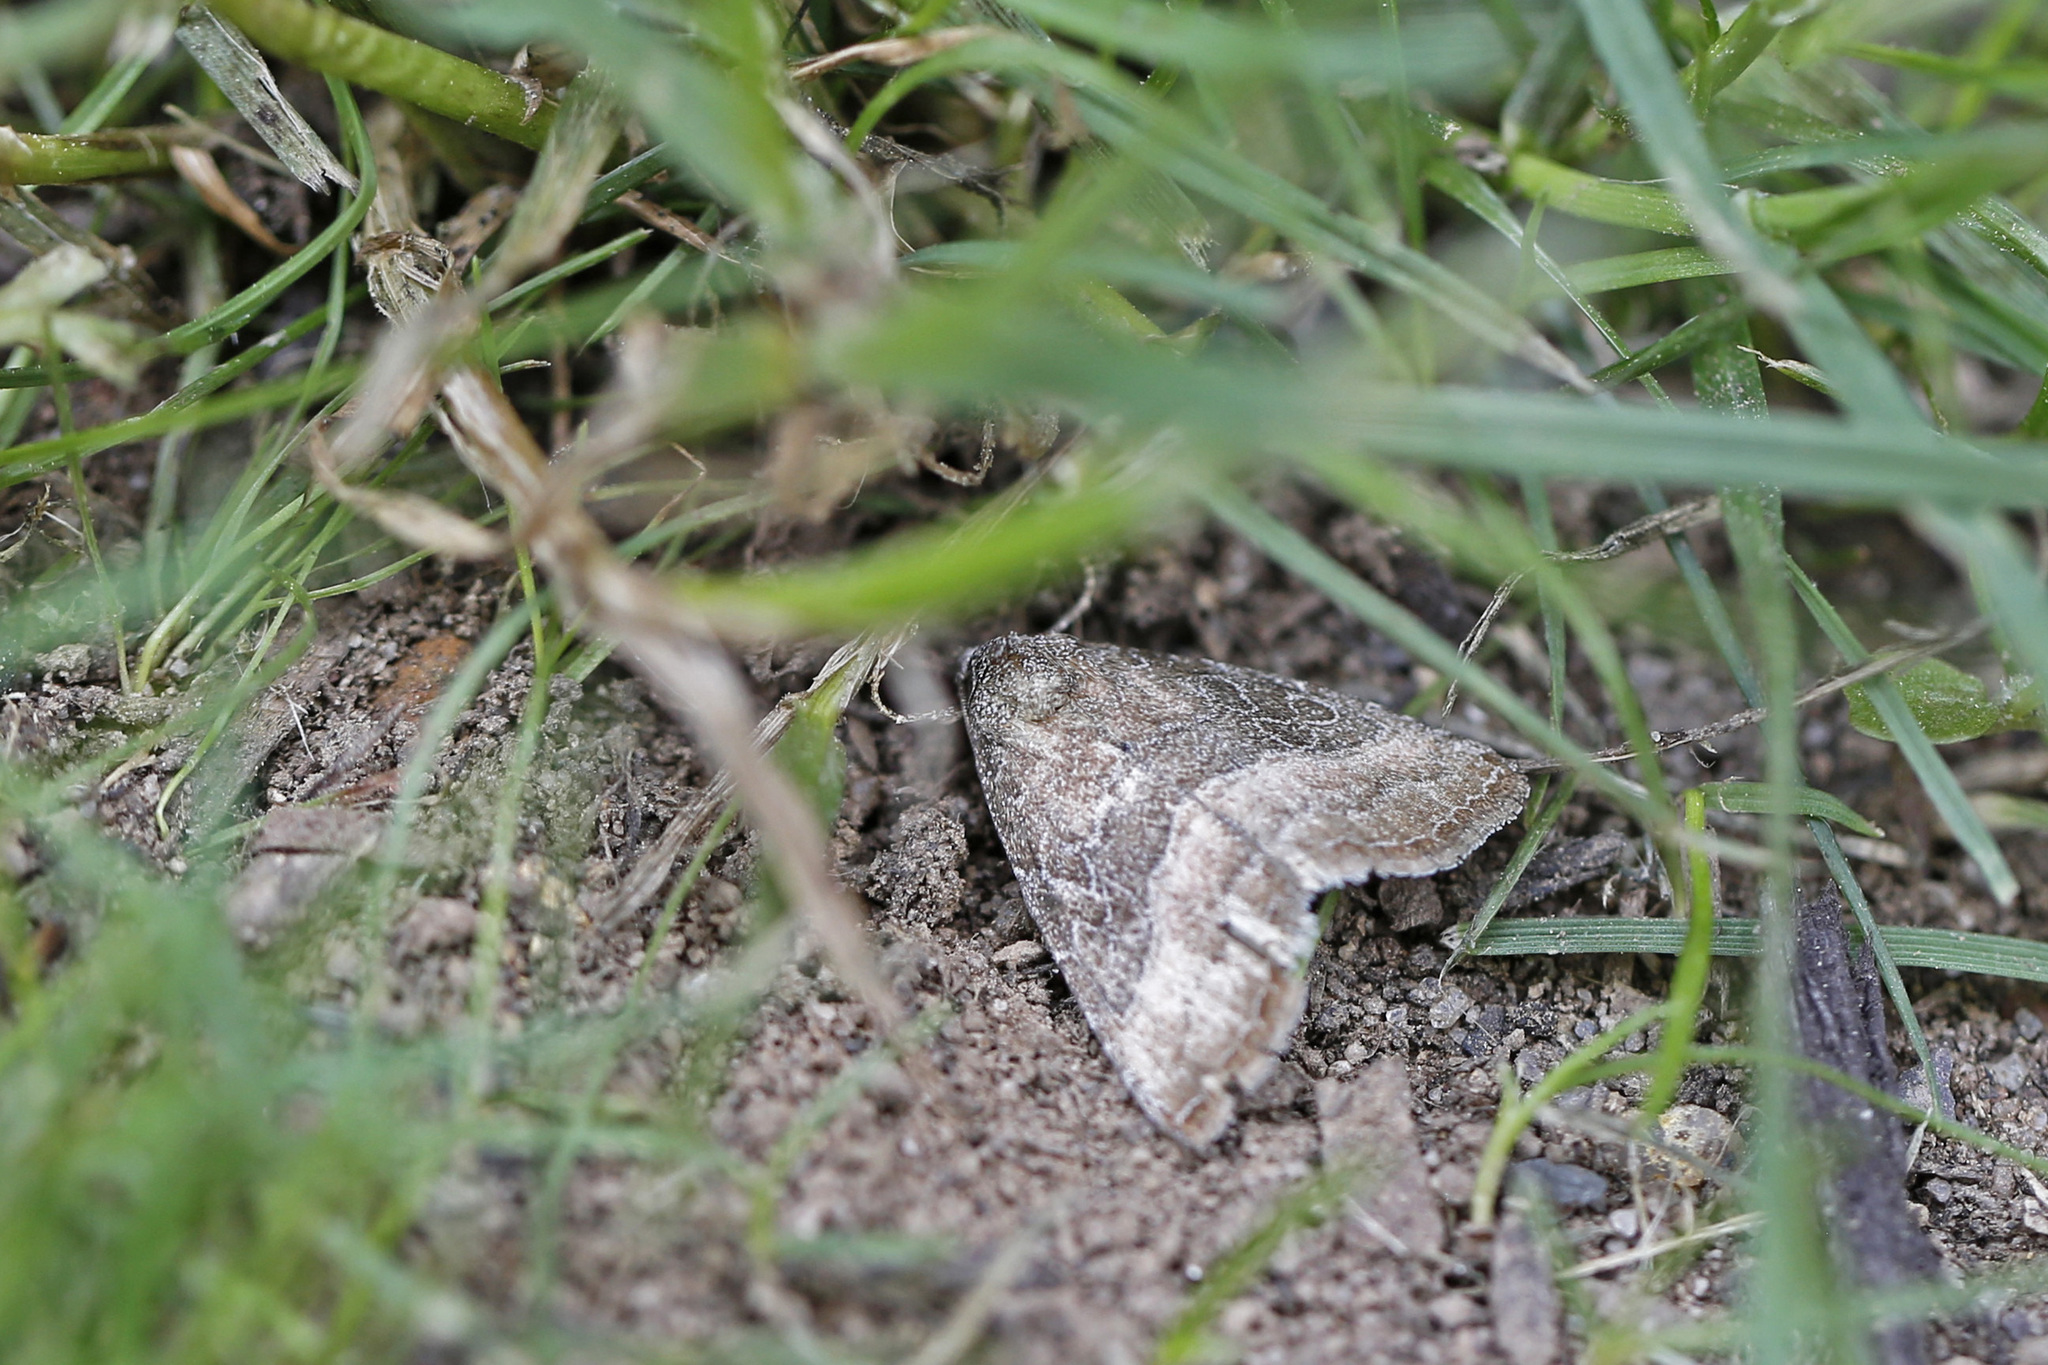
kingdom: Animalia
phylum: Arthropoda
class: Insecta
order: Lepidoptera
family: Noctuidae
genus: Ogdoconta
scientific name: Ogdoconta cinereola
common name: Common pinkband
